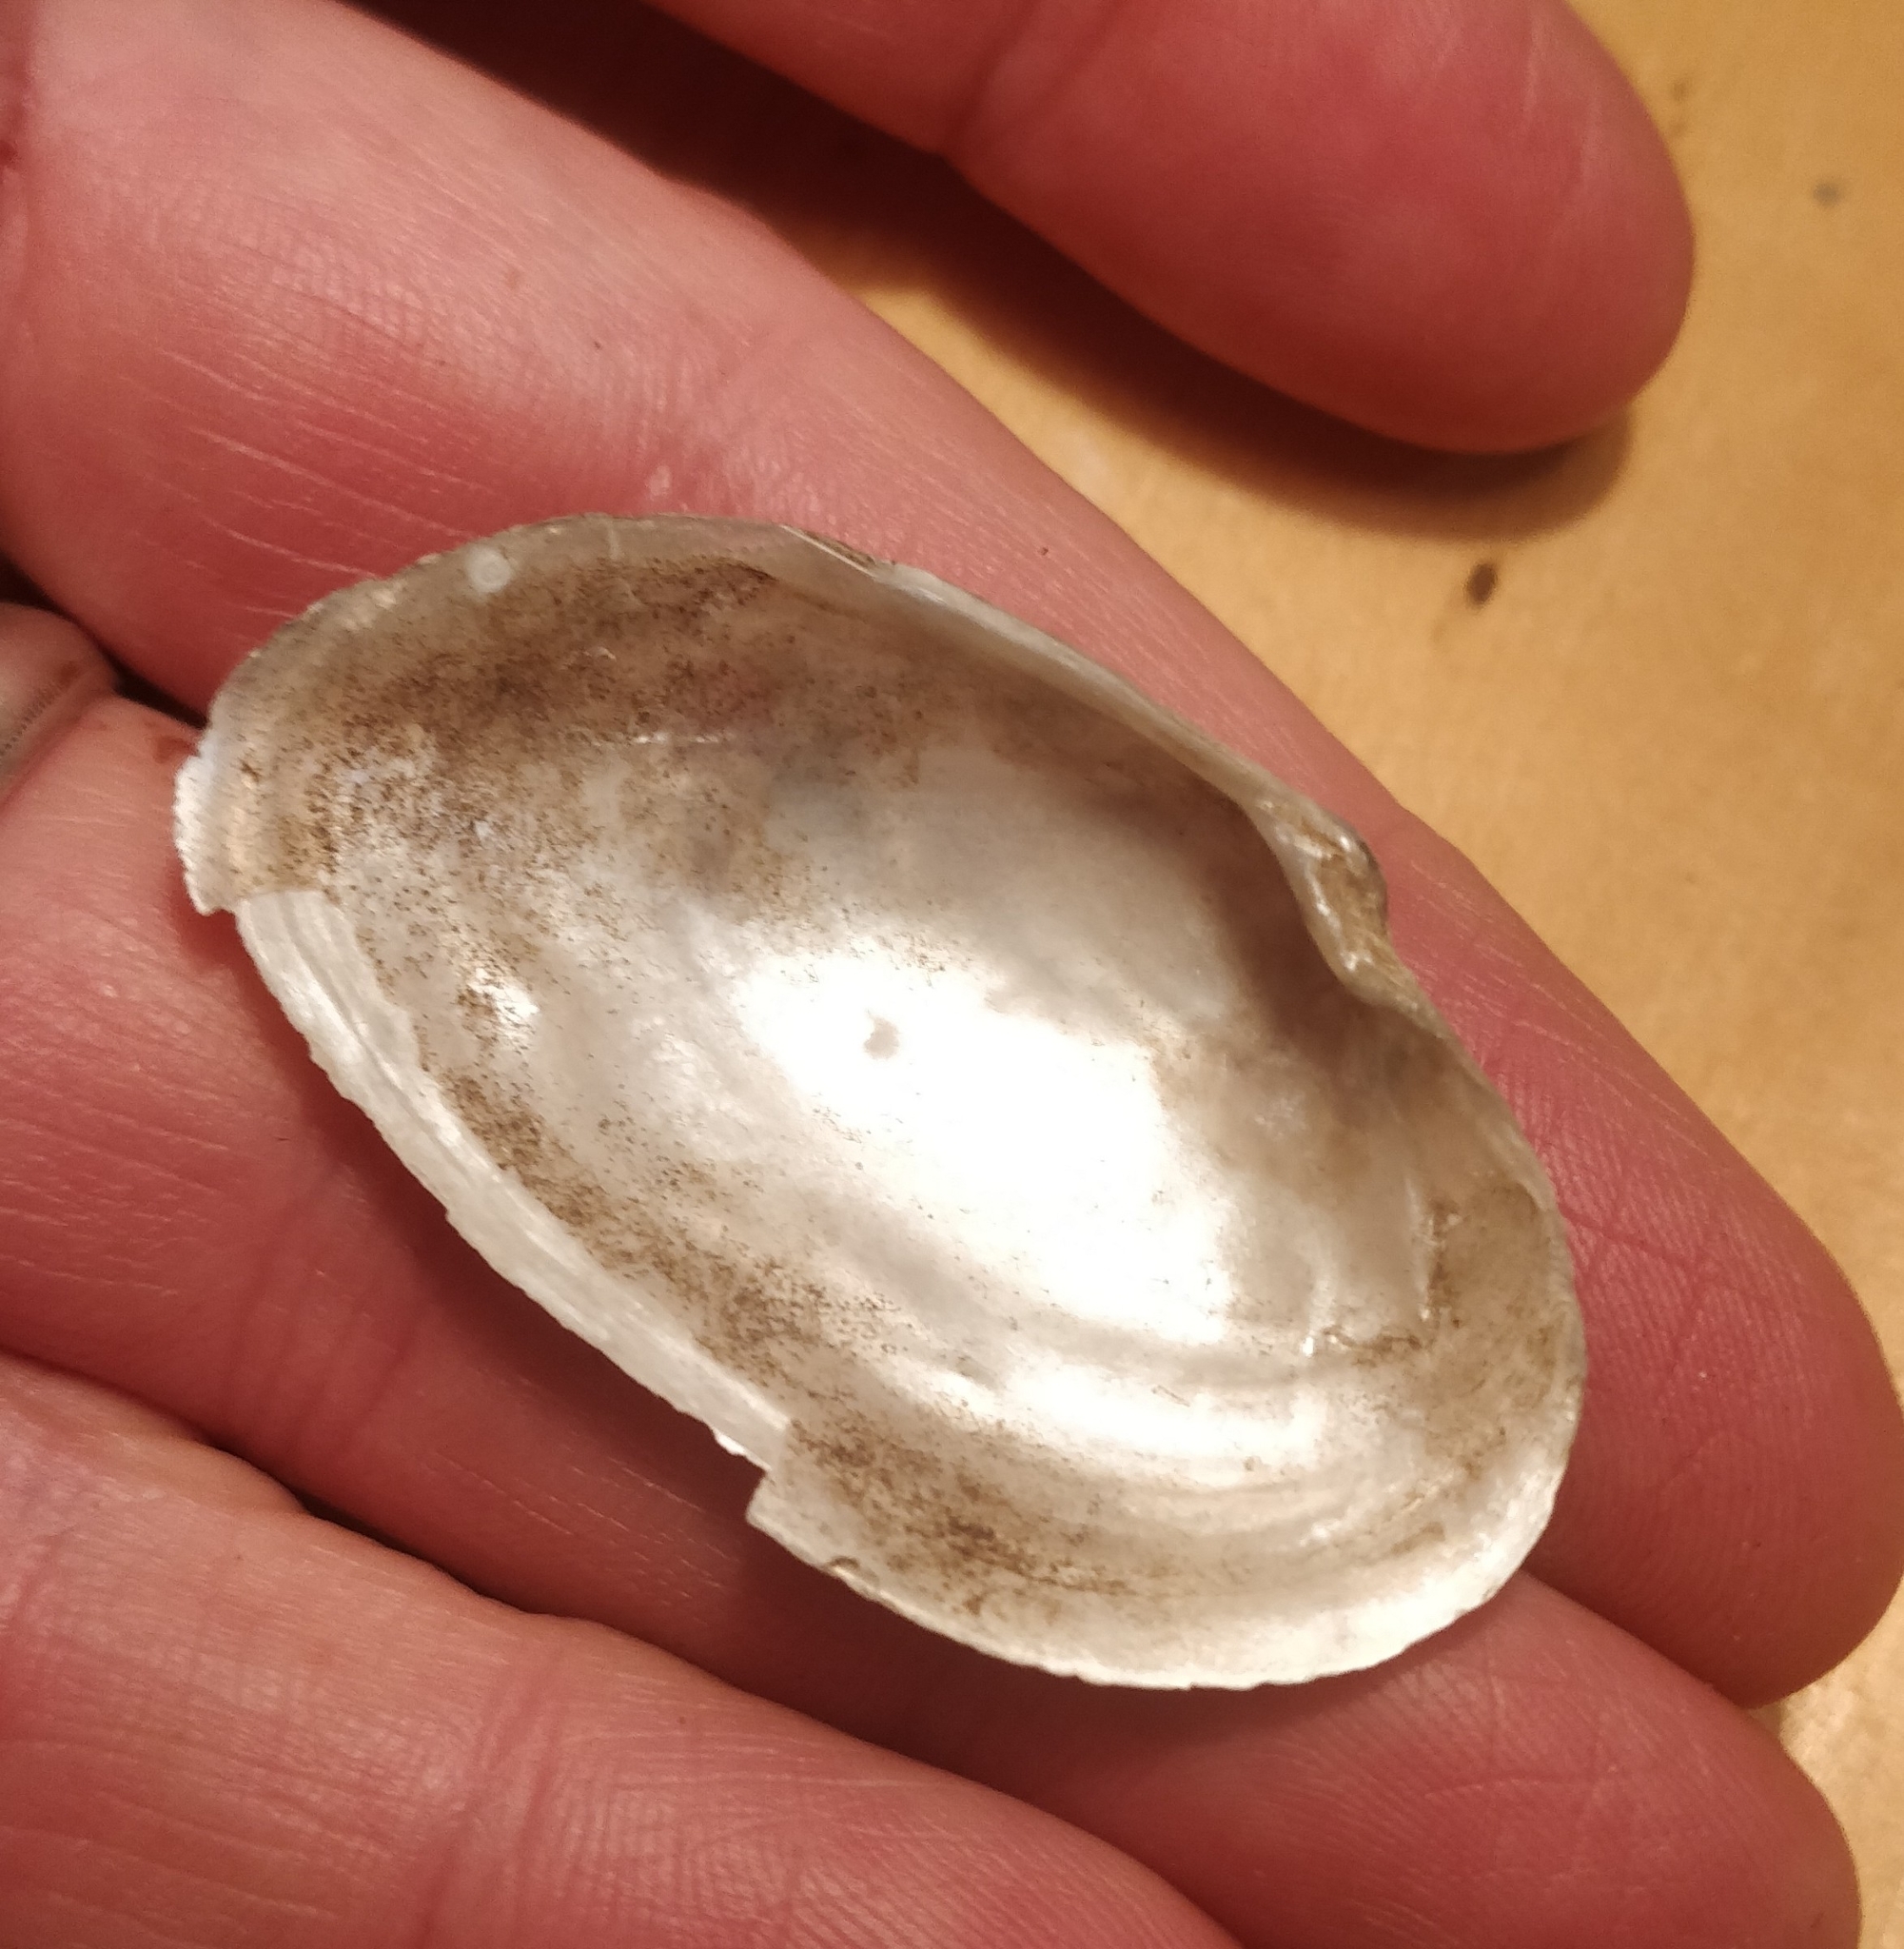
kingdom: Animalia
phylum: Mollusca
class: Bivalvia
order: Unionida
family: Unionidae
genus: Strophitus
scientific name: Strophitus undulatus
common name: Creeper
